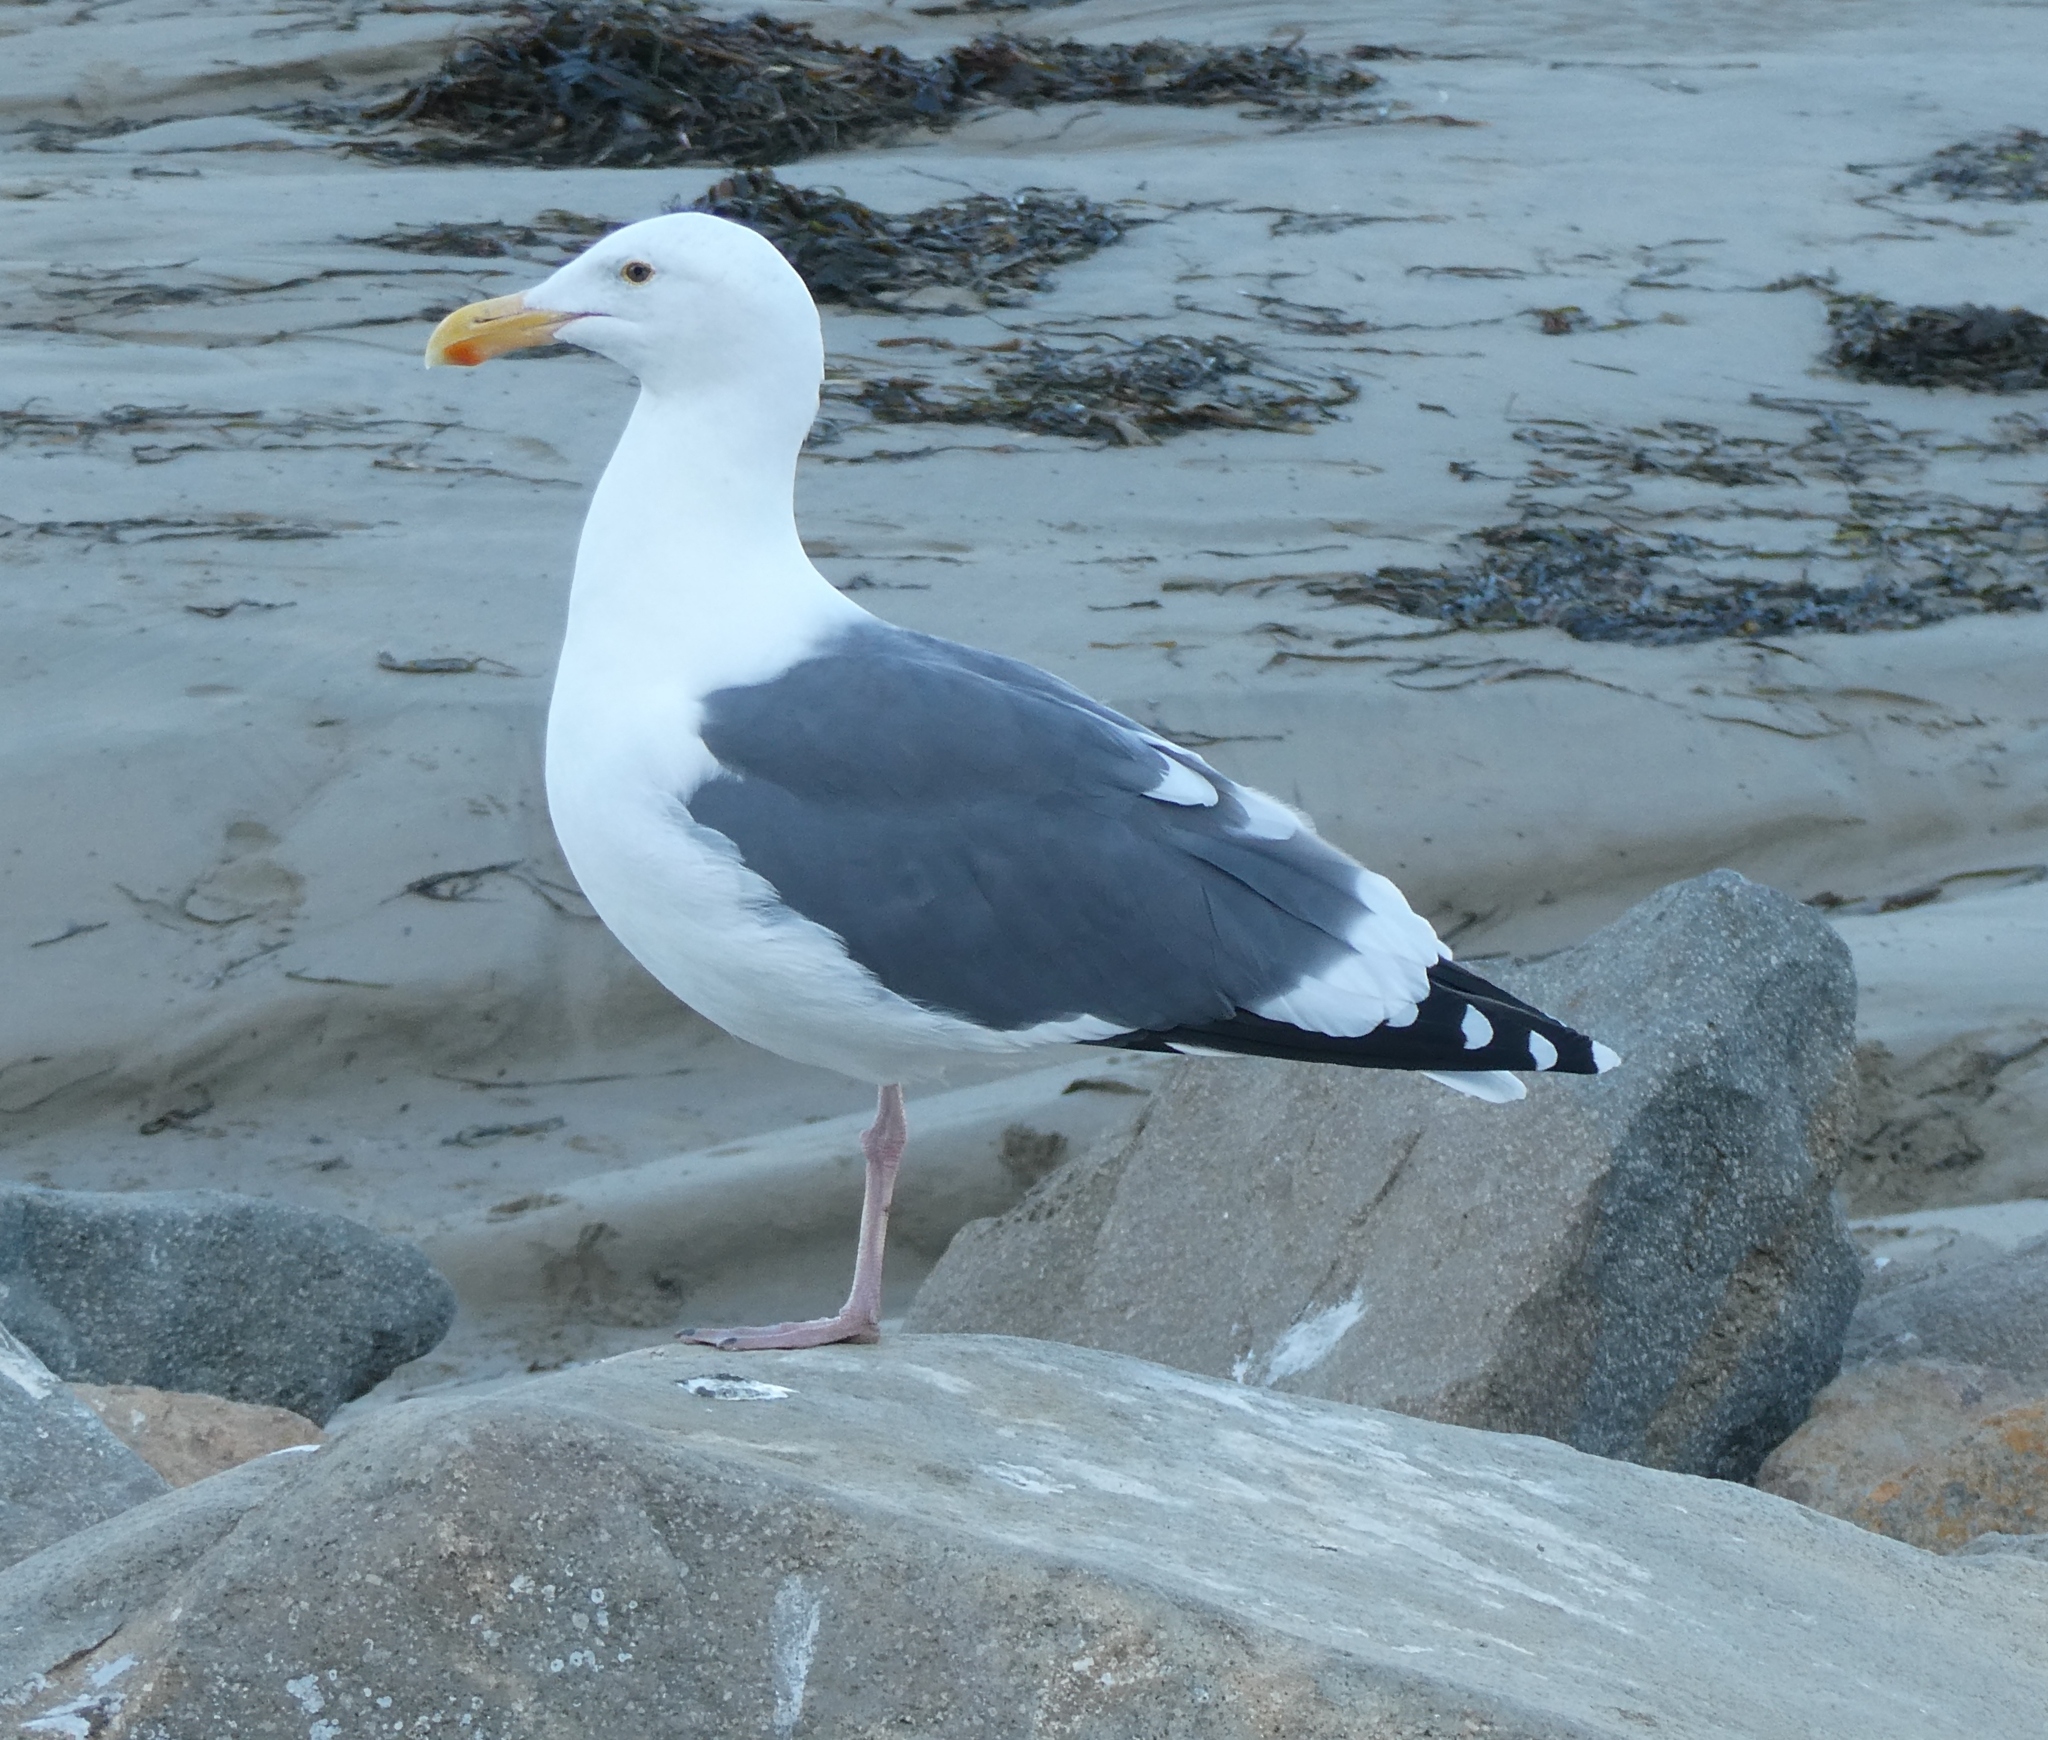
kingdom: Animalia
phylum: Chordata
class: Aves
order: Charadriiformes
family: Laridae
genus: Larus
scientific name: Larus occidentalis
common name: Western gull
